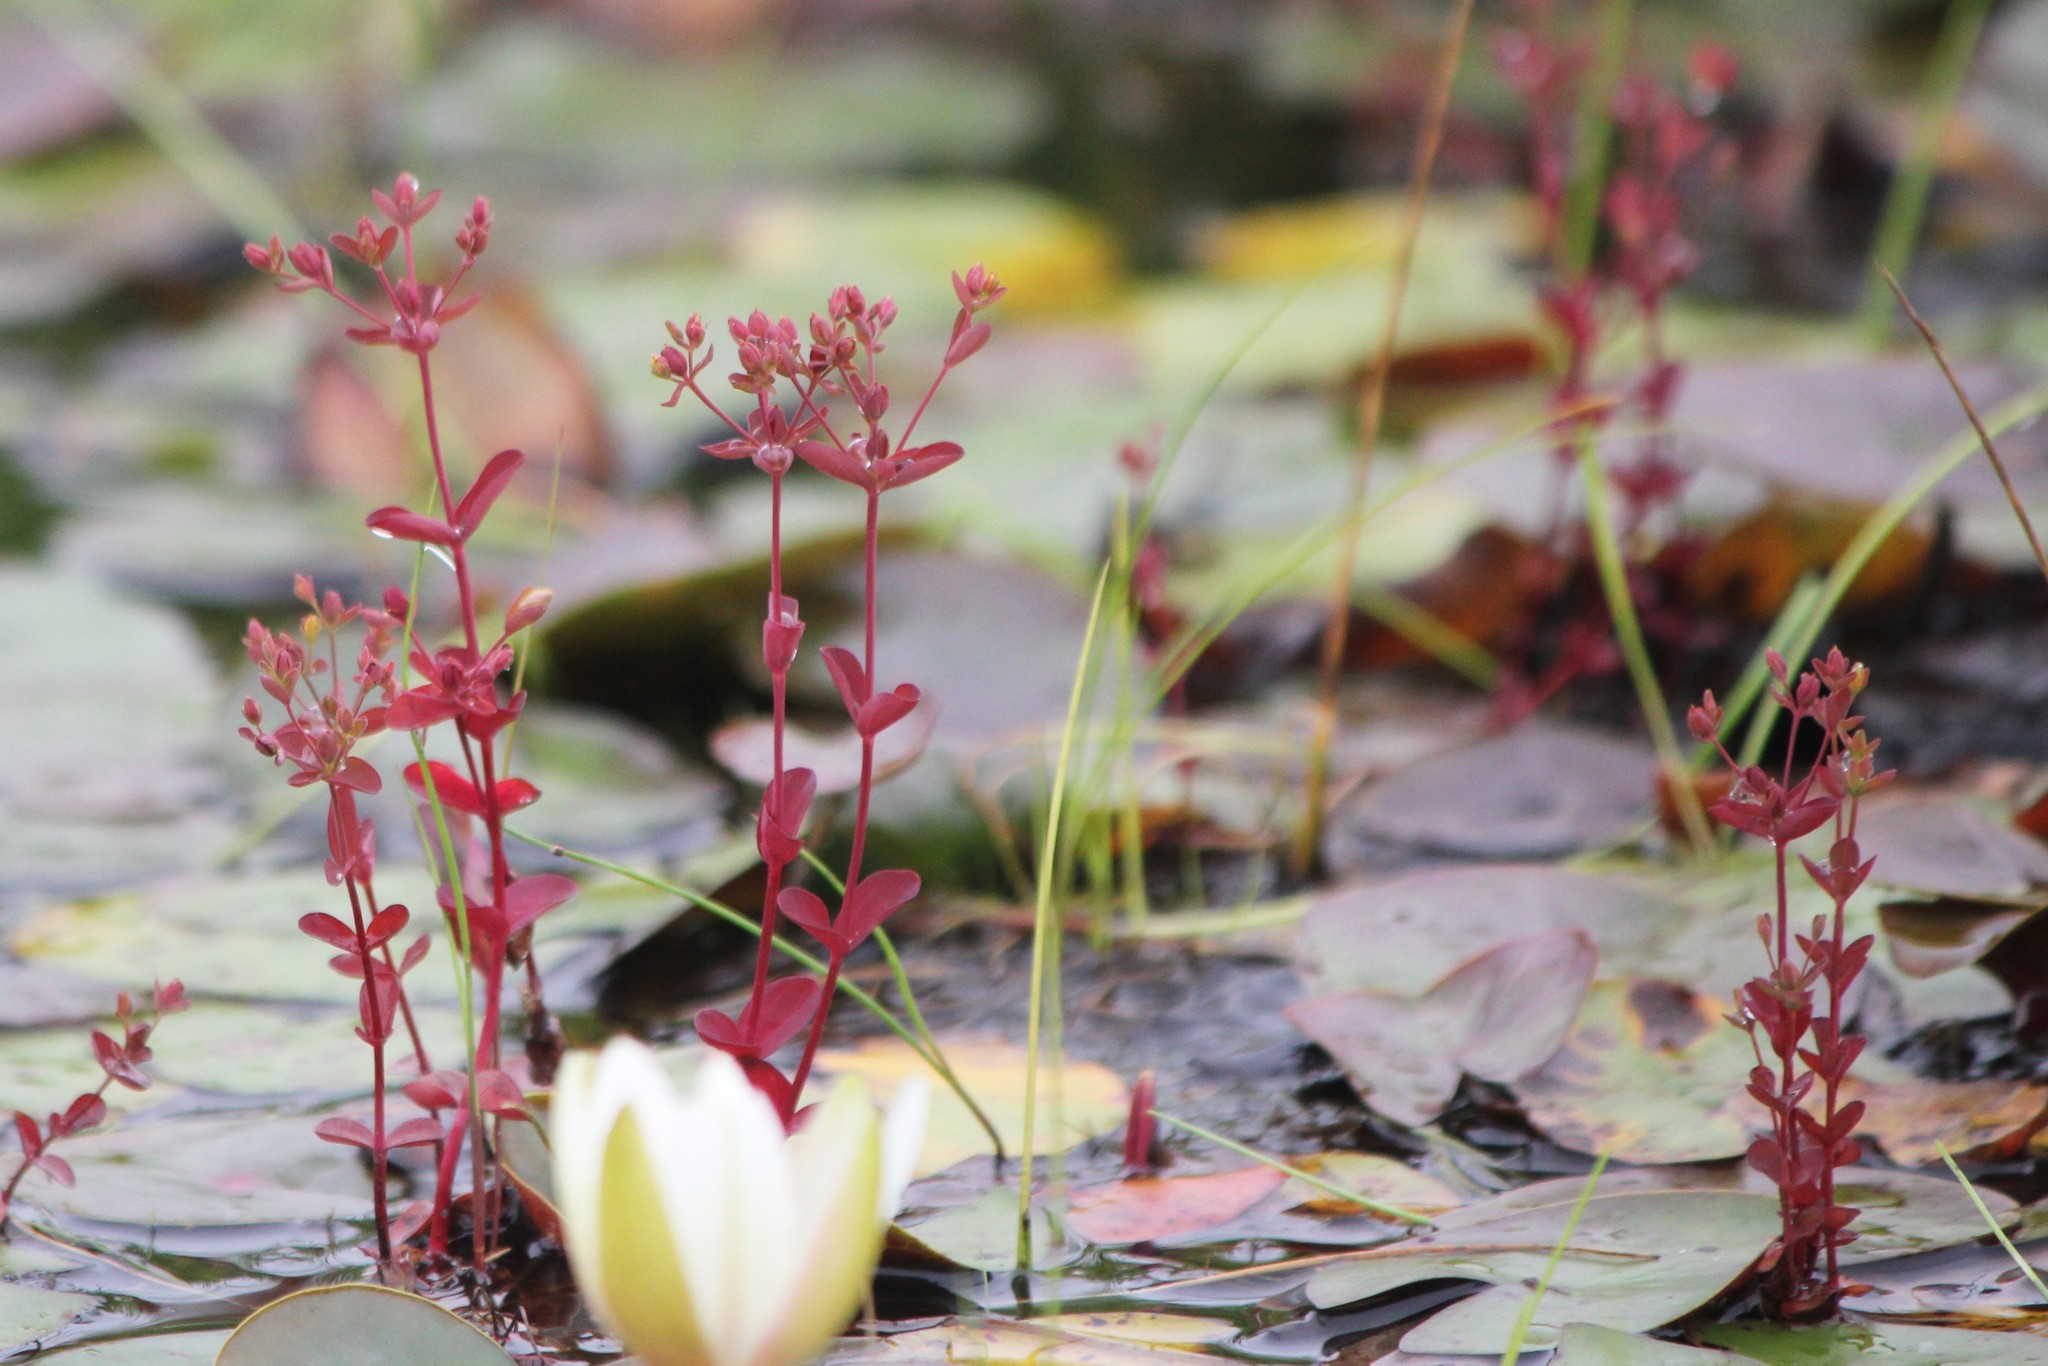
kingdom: Plantae
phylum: Tracheophyta
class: Magnoliopsida
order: Malpighiales
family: Hypericaceae
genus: Hypericum
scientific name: Hypericum boreale
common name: Northern bog st. john's-wort
